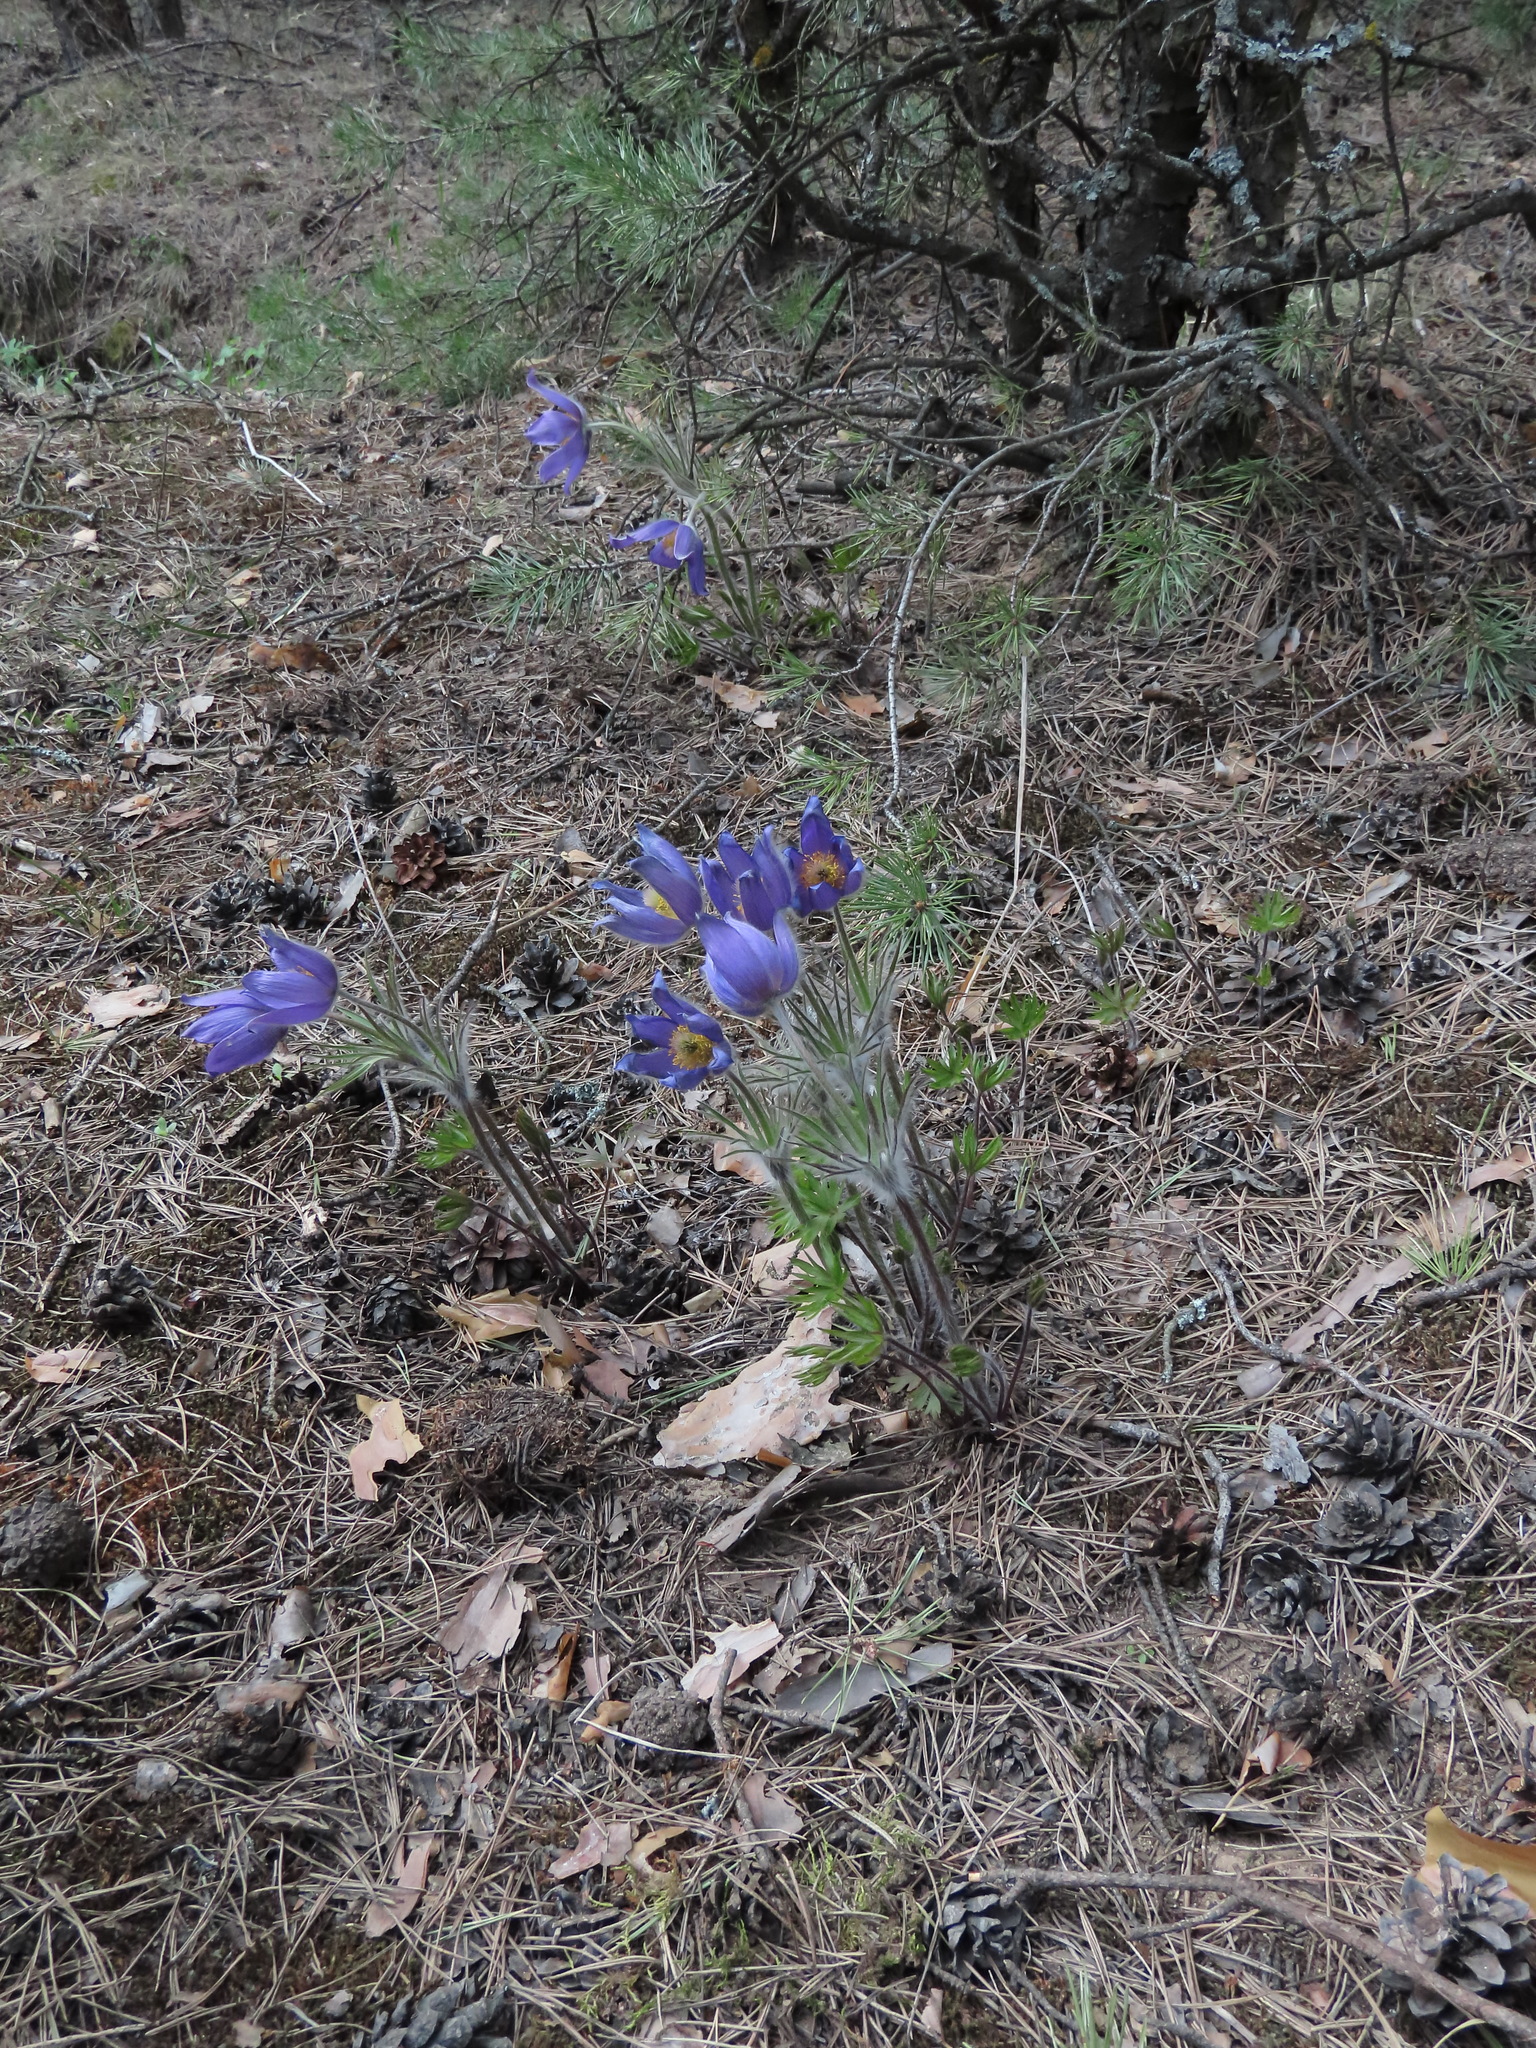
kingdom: Plantae
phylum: Tracheophyta
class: Magnoliopsida
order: Ranunculales
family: Ranunculaceae
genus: Pulsatilla
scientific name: Pulsatilla patens
